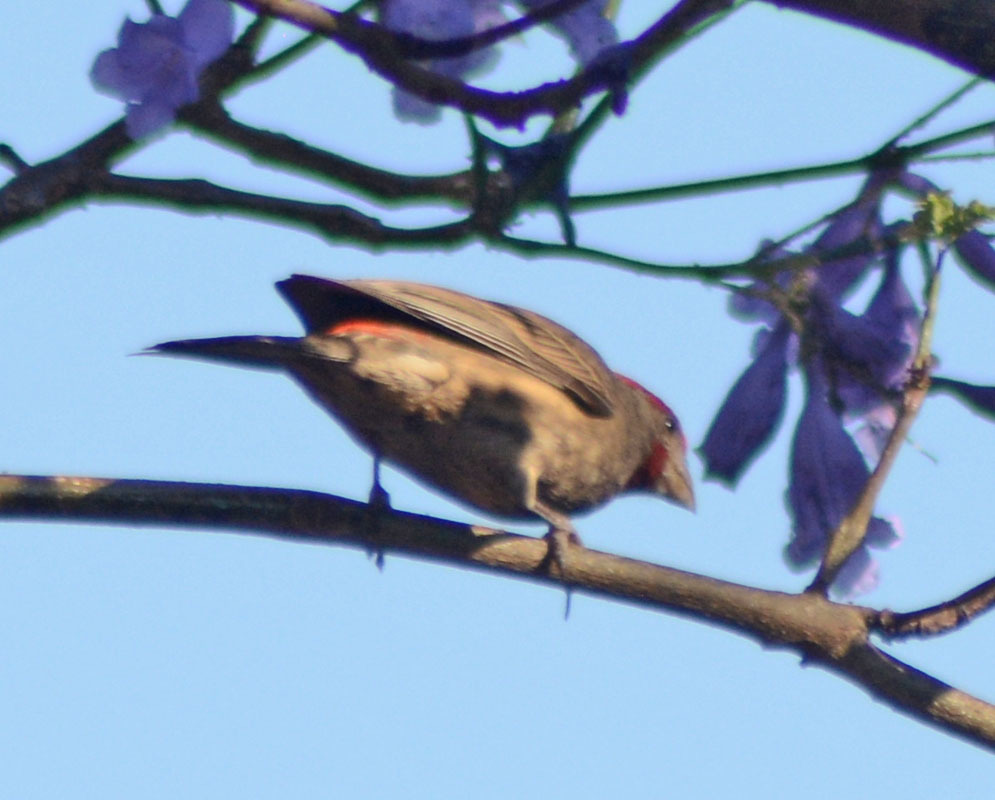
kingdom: Animalia
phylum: Chordata
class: Aves
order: Passeriformes
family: Fringillidae
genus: Haemorhous
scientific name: Haemorhous mexicanus
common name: House finch
